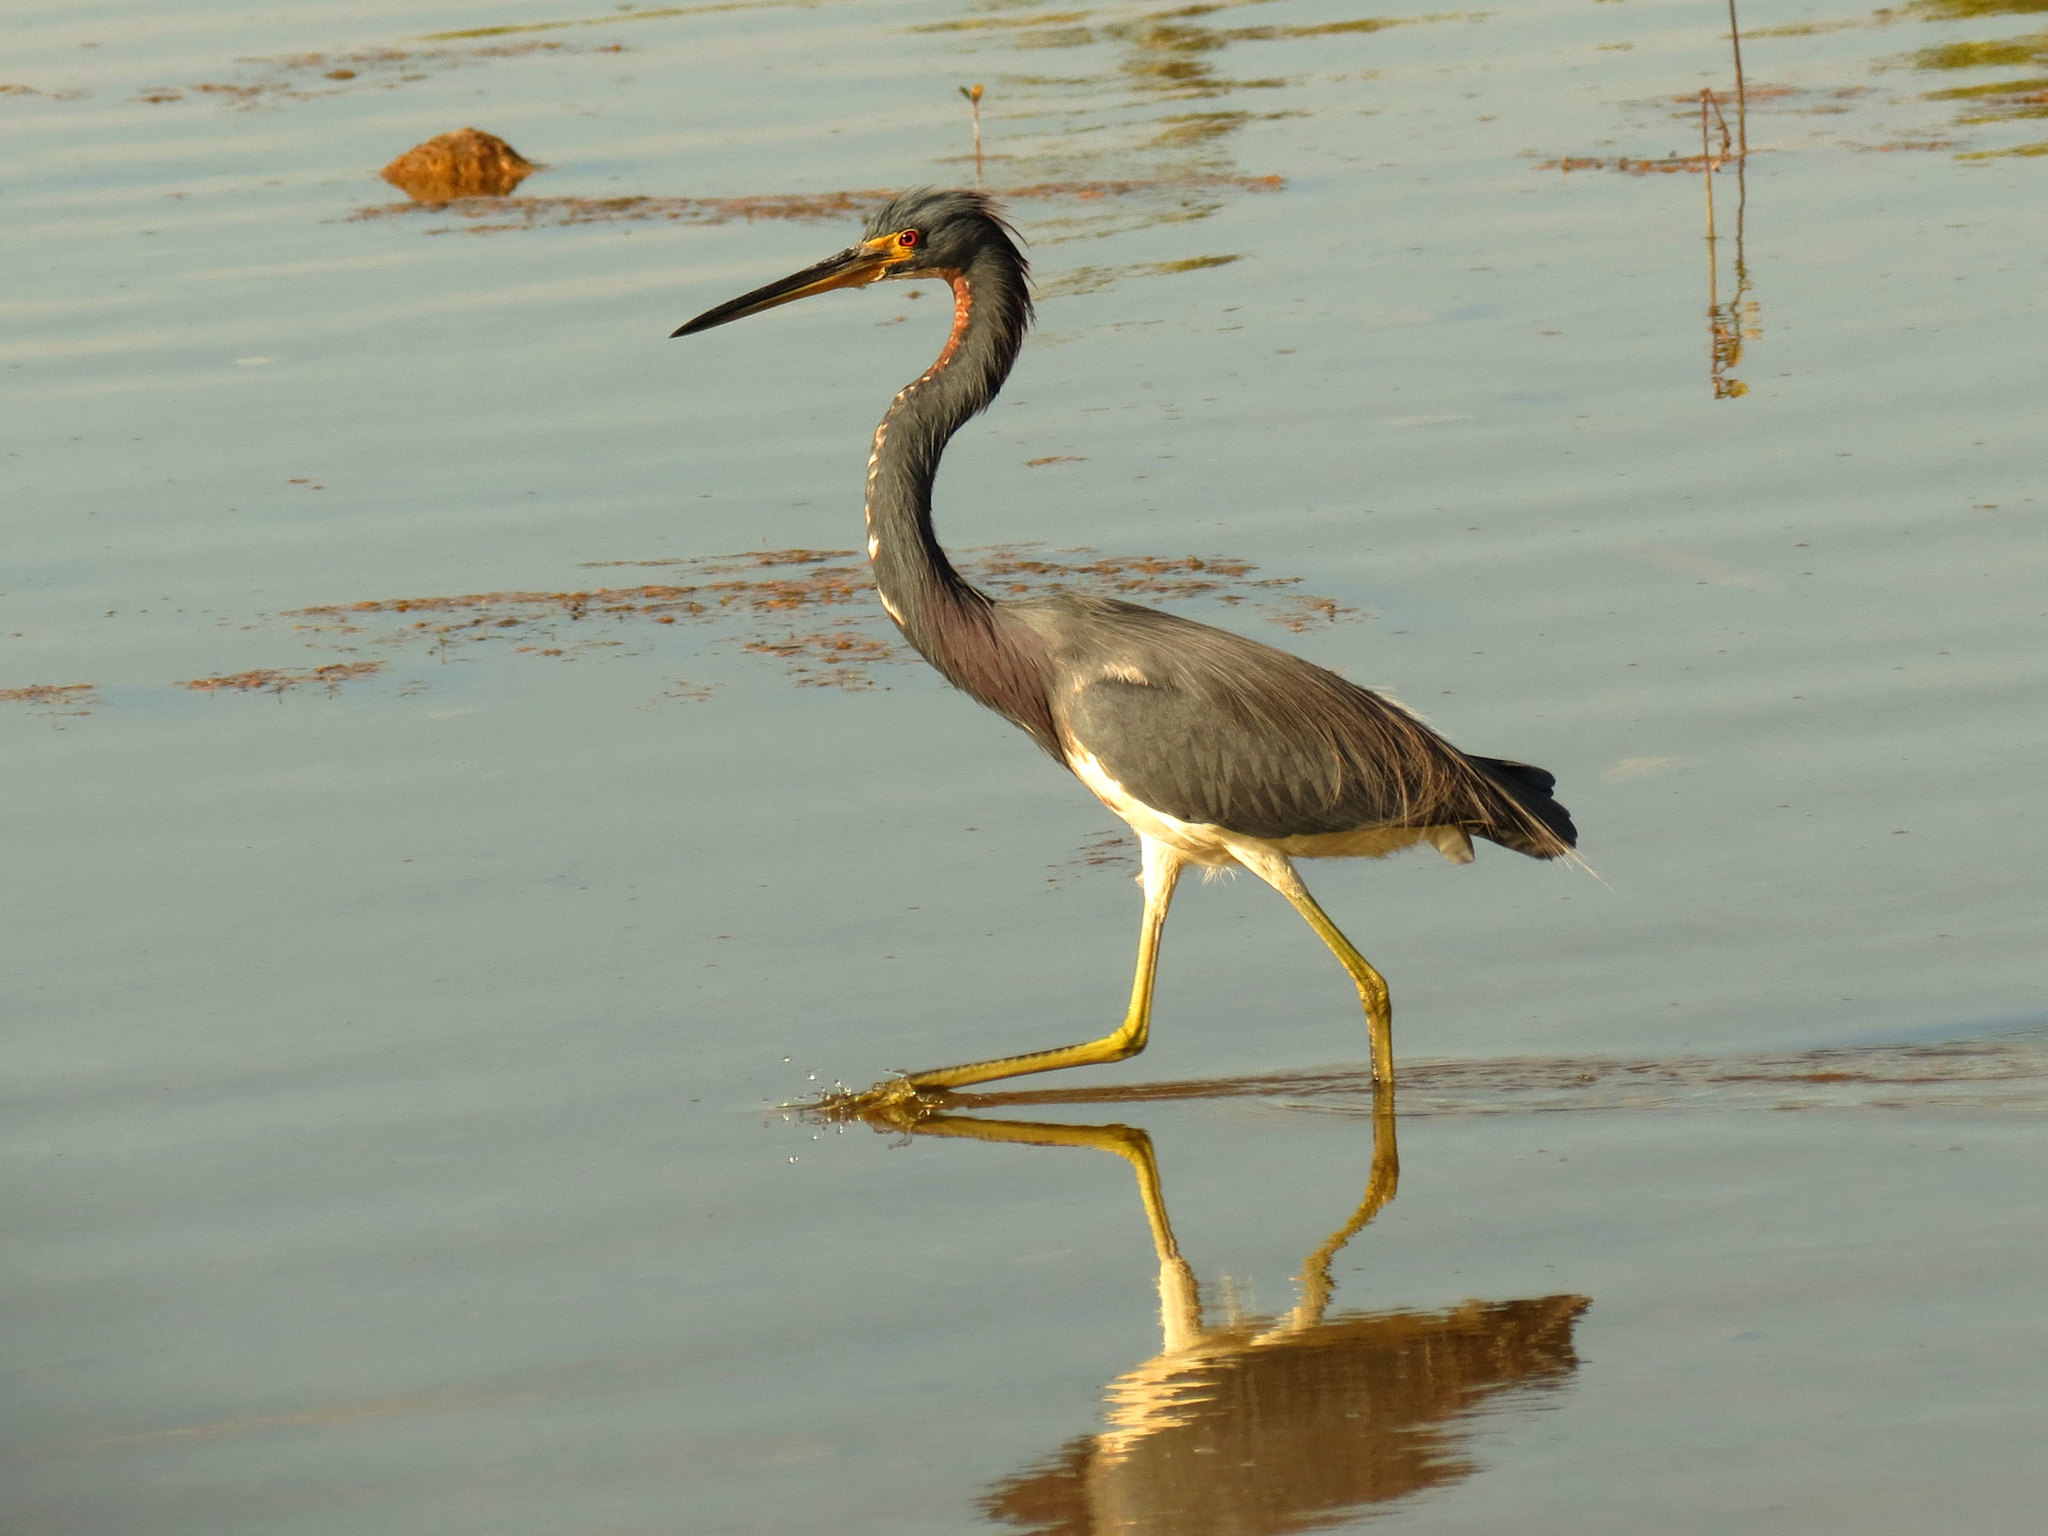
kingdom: Animalia
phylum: Chordata
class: Aves
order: Pelecaniformes
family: Ardeidae
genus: Egretta
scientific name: Egretta tricolor
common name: Tricolored heron
